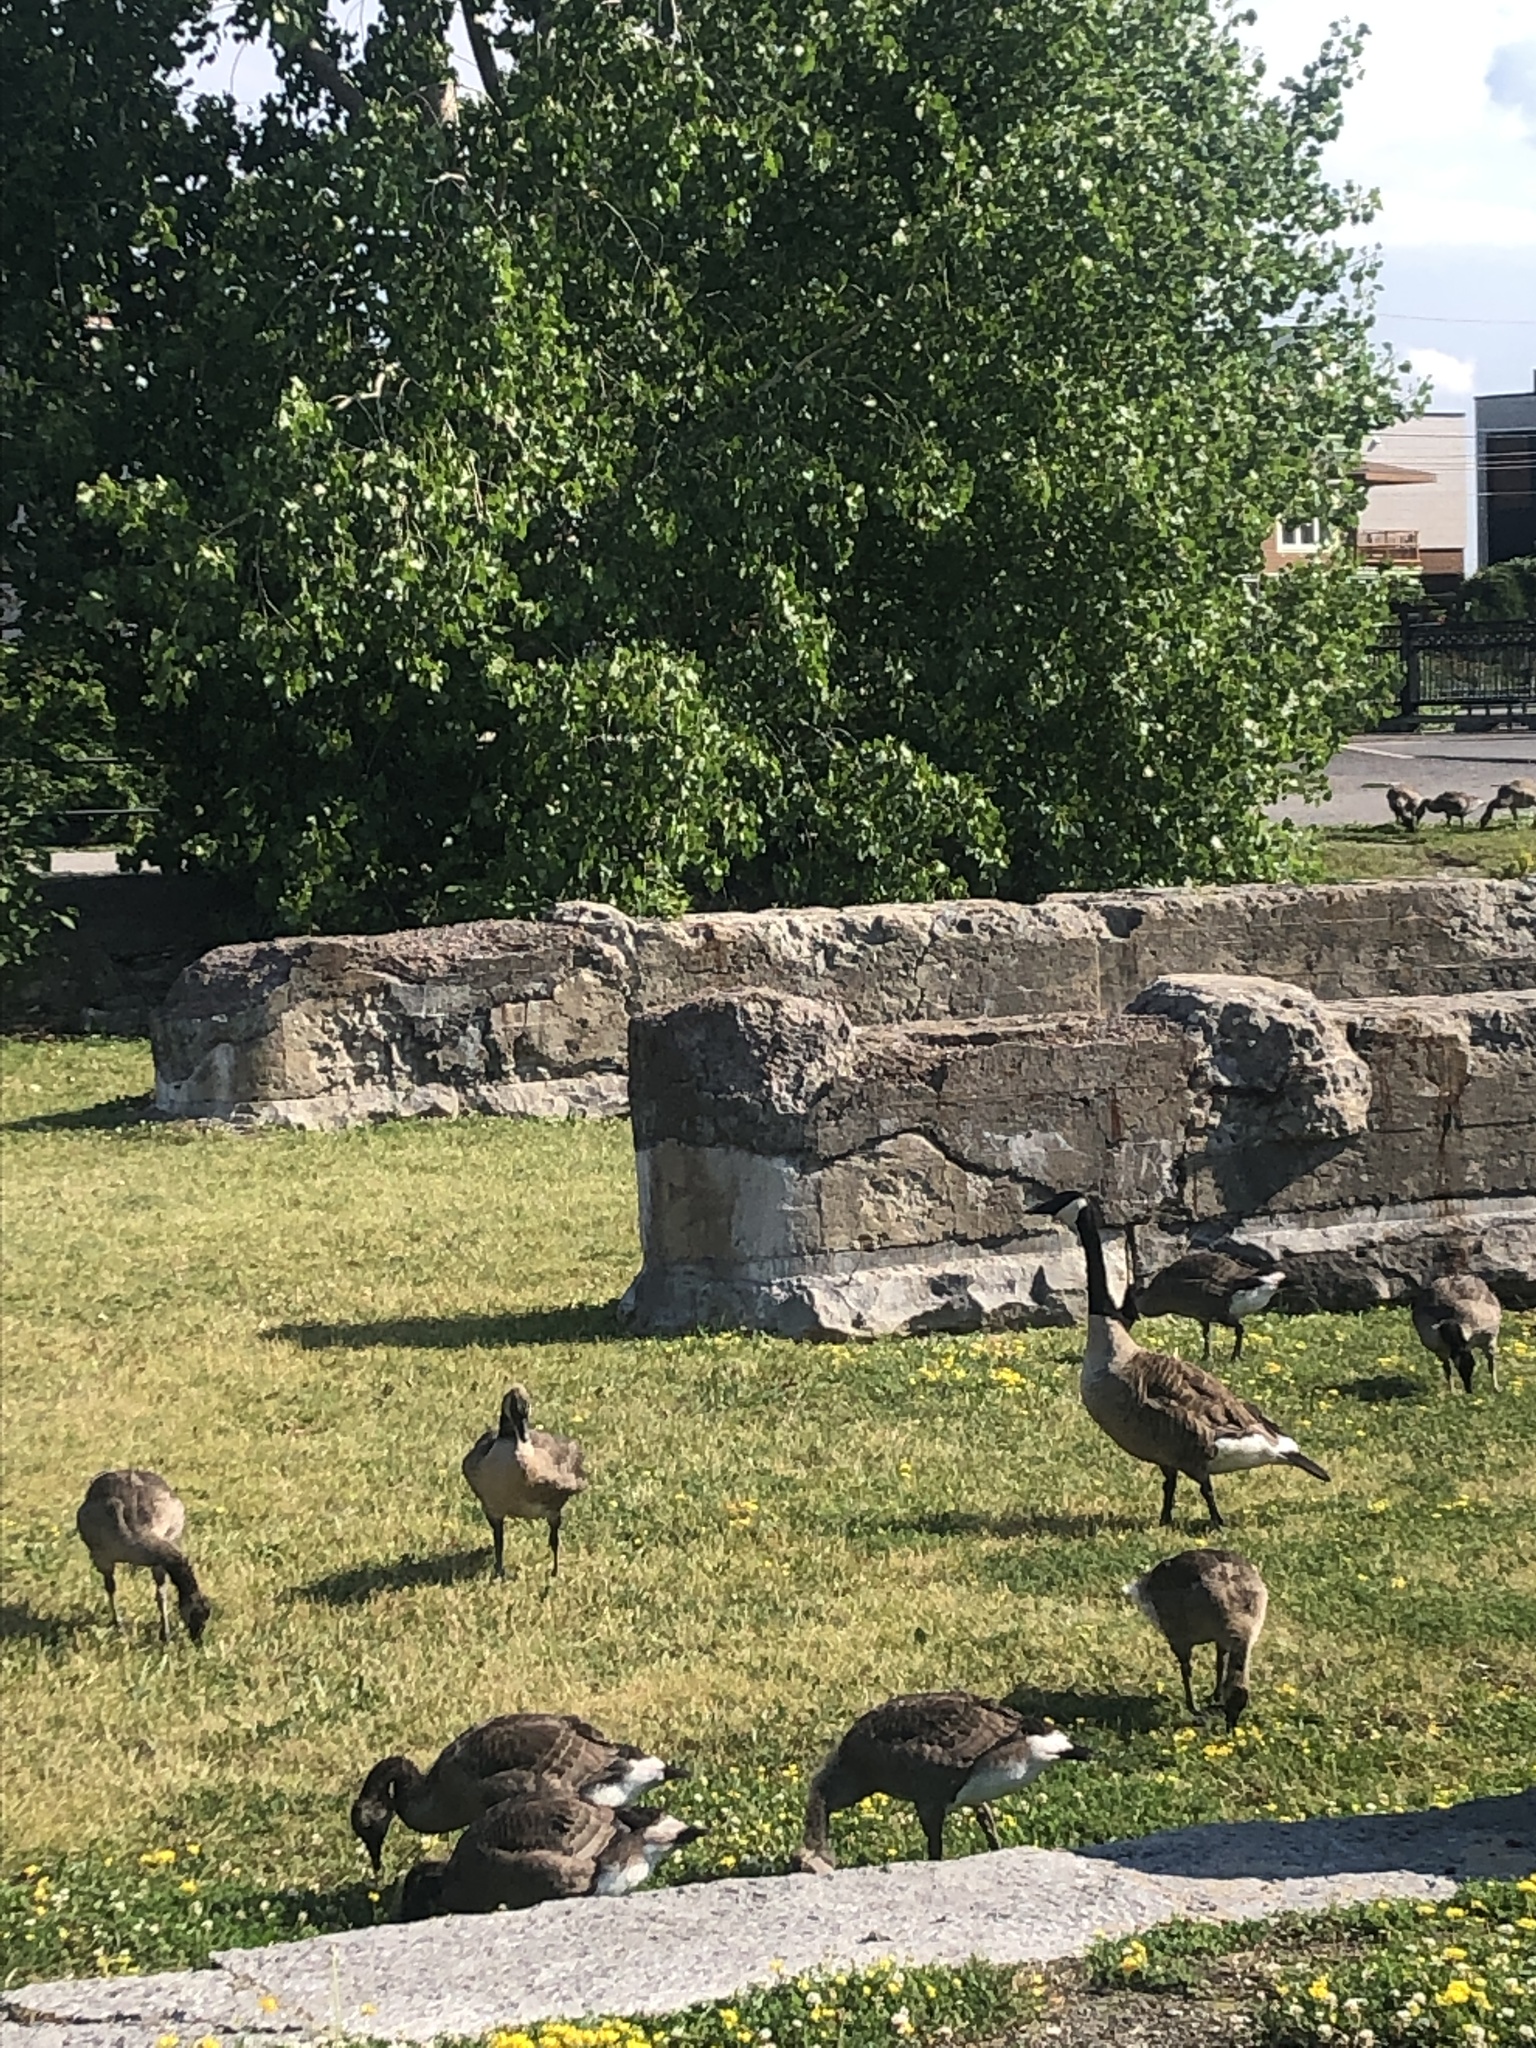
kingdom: Animalia
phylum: Chordata
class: Aves
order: Anseriformes
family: Anatidae
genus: Branta
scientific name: Branta canadensis
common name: Canada goose
